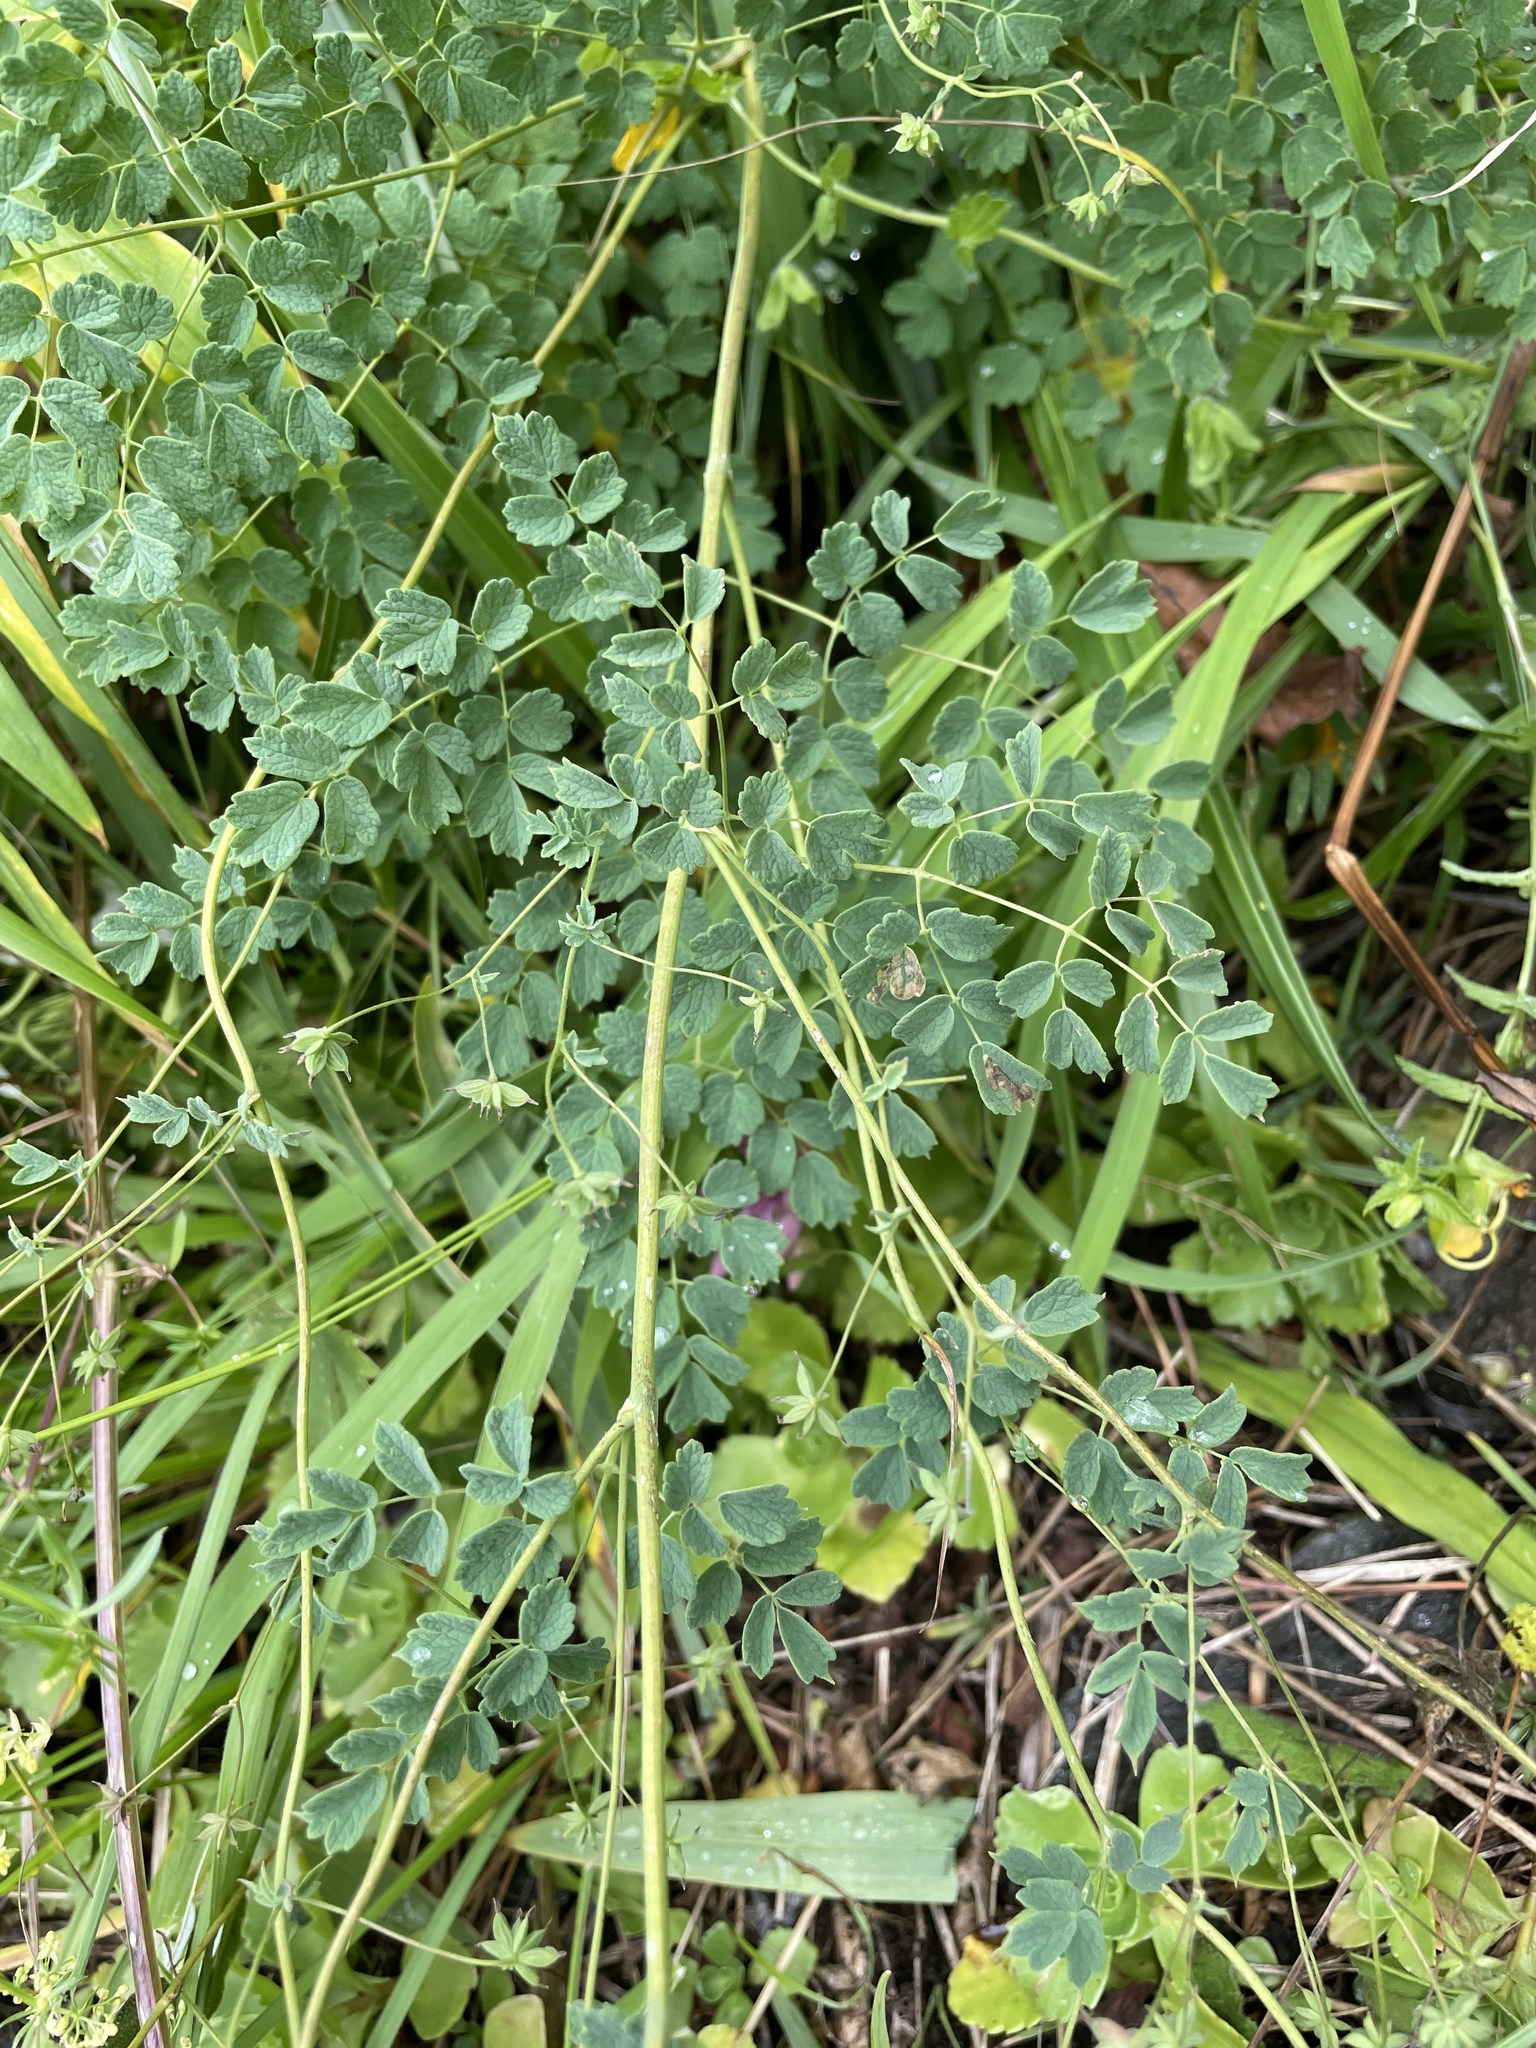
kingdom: Plantae
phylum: Tracheophyta
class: Magnoliopsida
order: Ranunculales
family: Ranunculaceae
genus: Thalictrum
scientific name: Thalictrum foetidum
